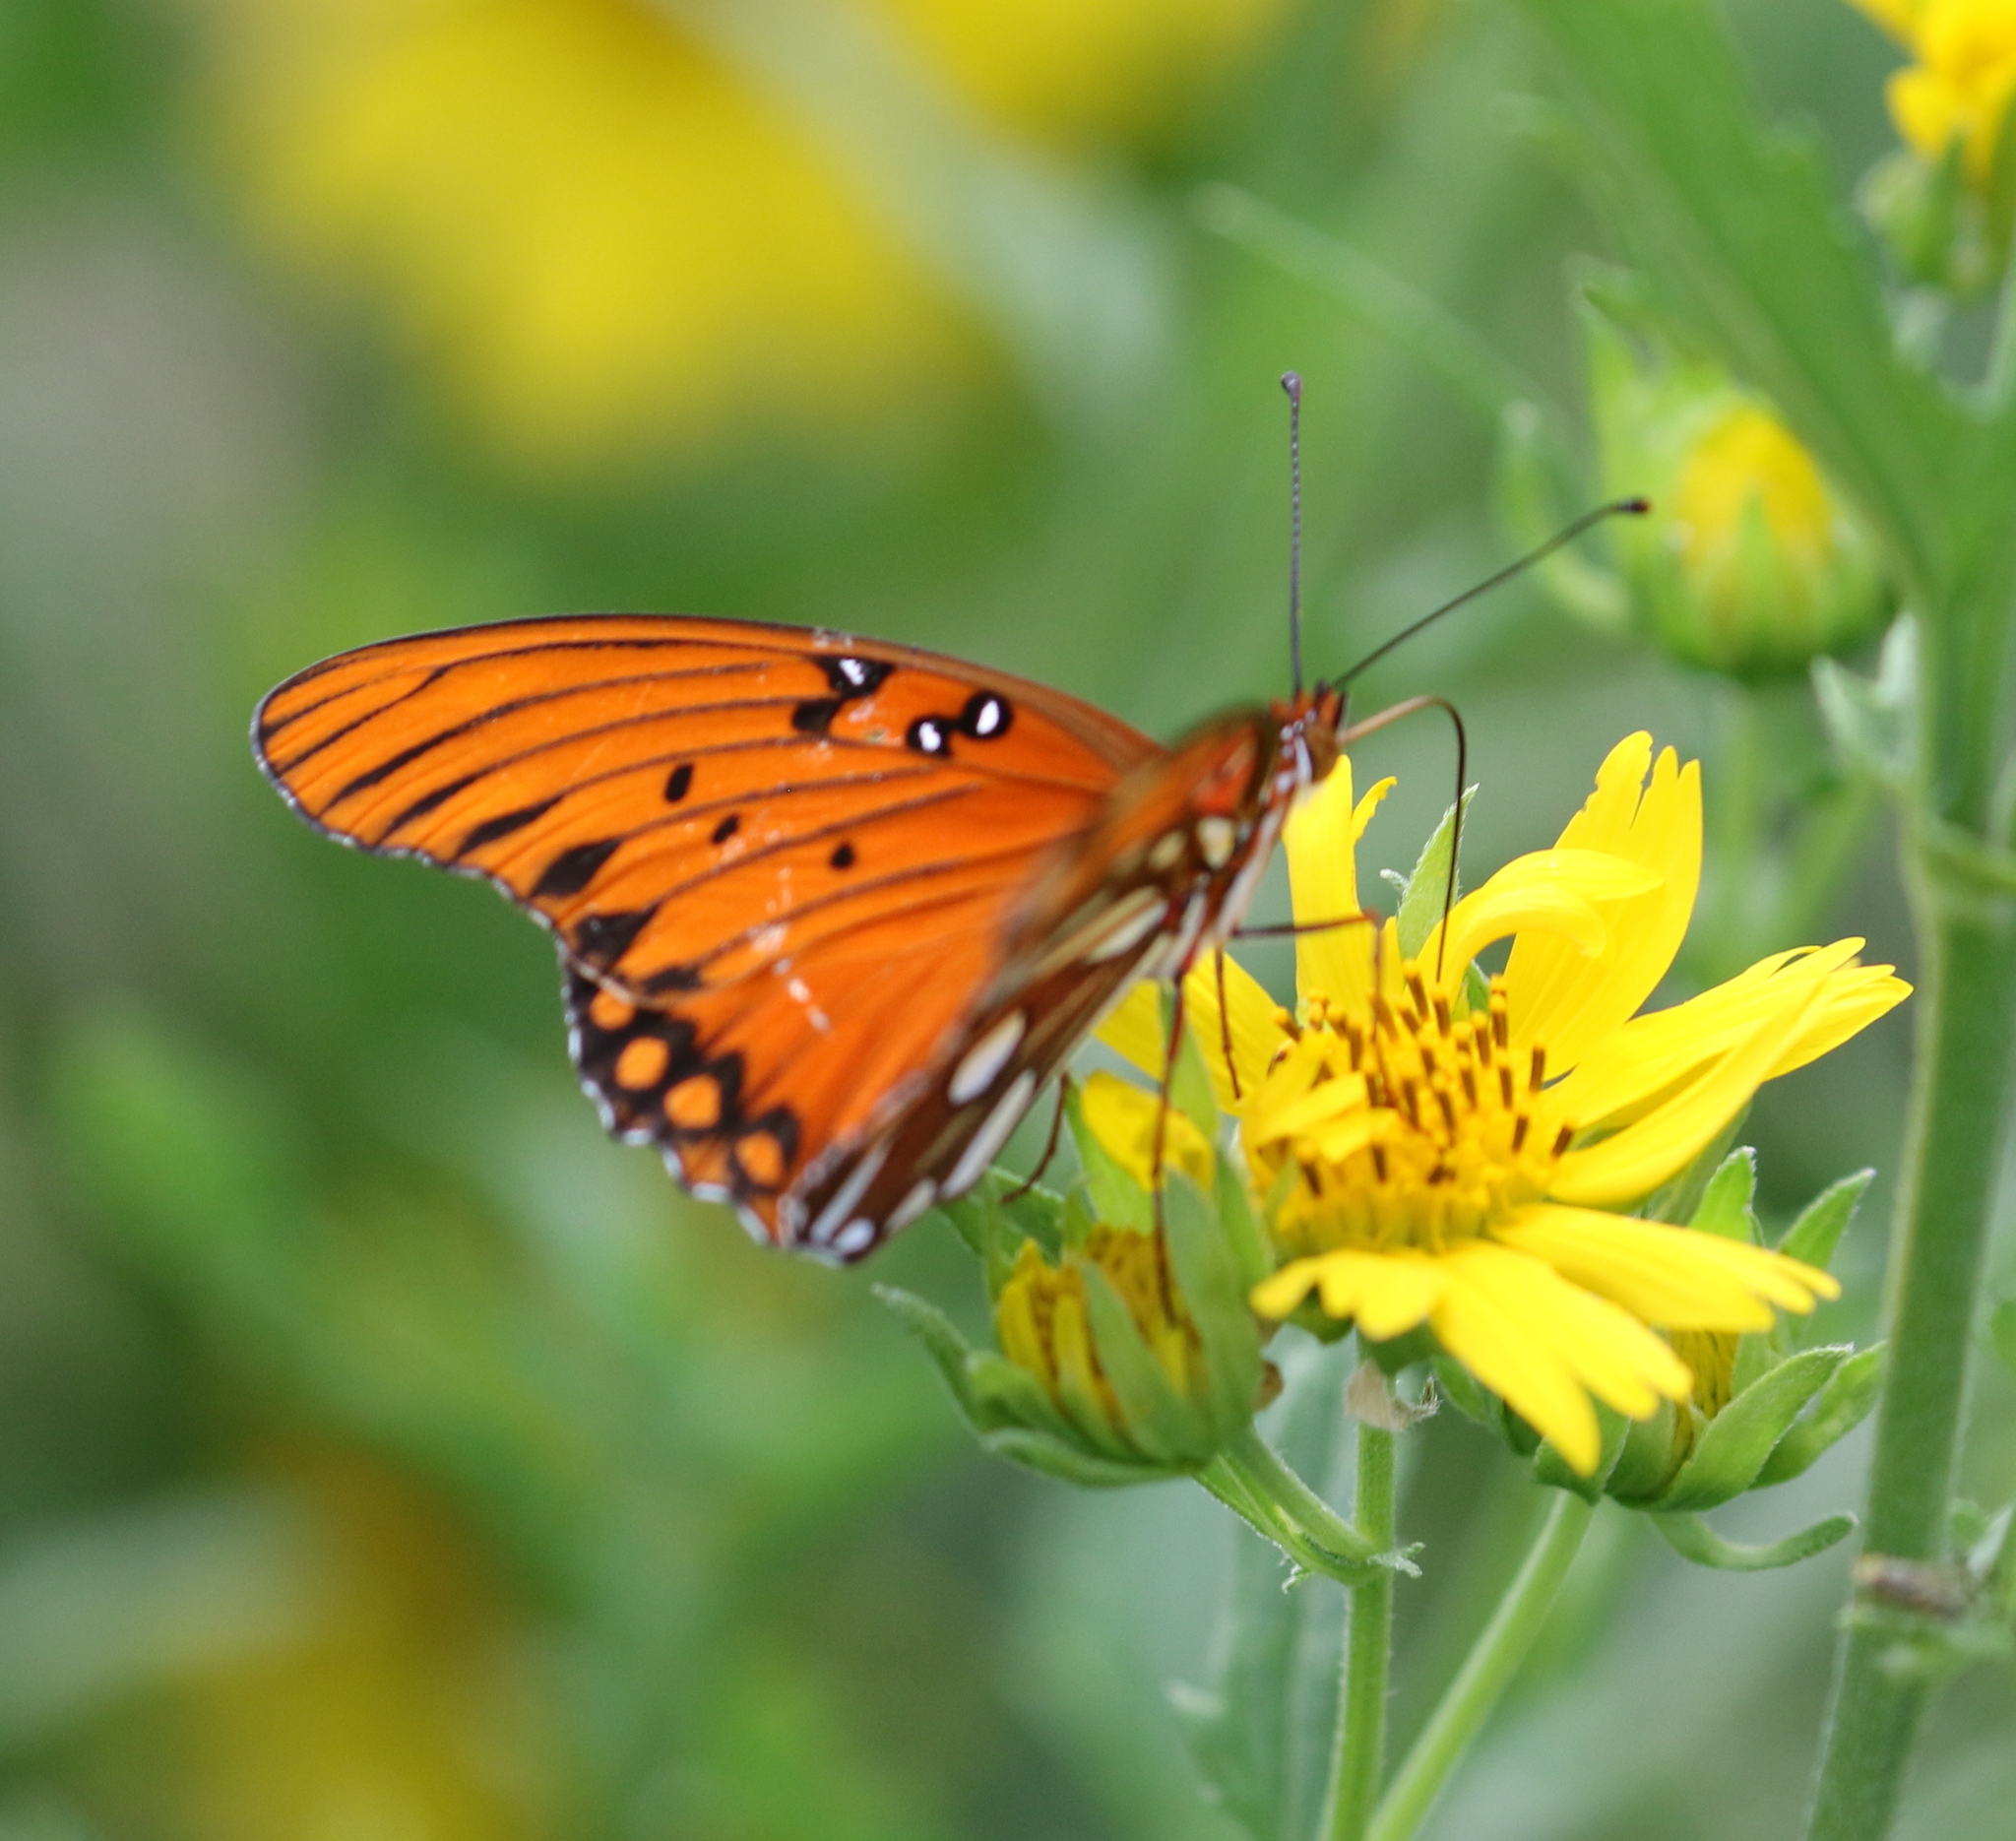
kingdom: Animalia
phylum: Arthropoda
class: Insecta
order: Lepidoptera
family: Nymphalidae
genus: Dione
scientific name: Dione vanillae
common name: Gulf fritillary
